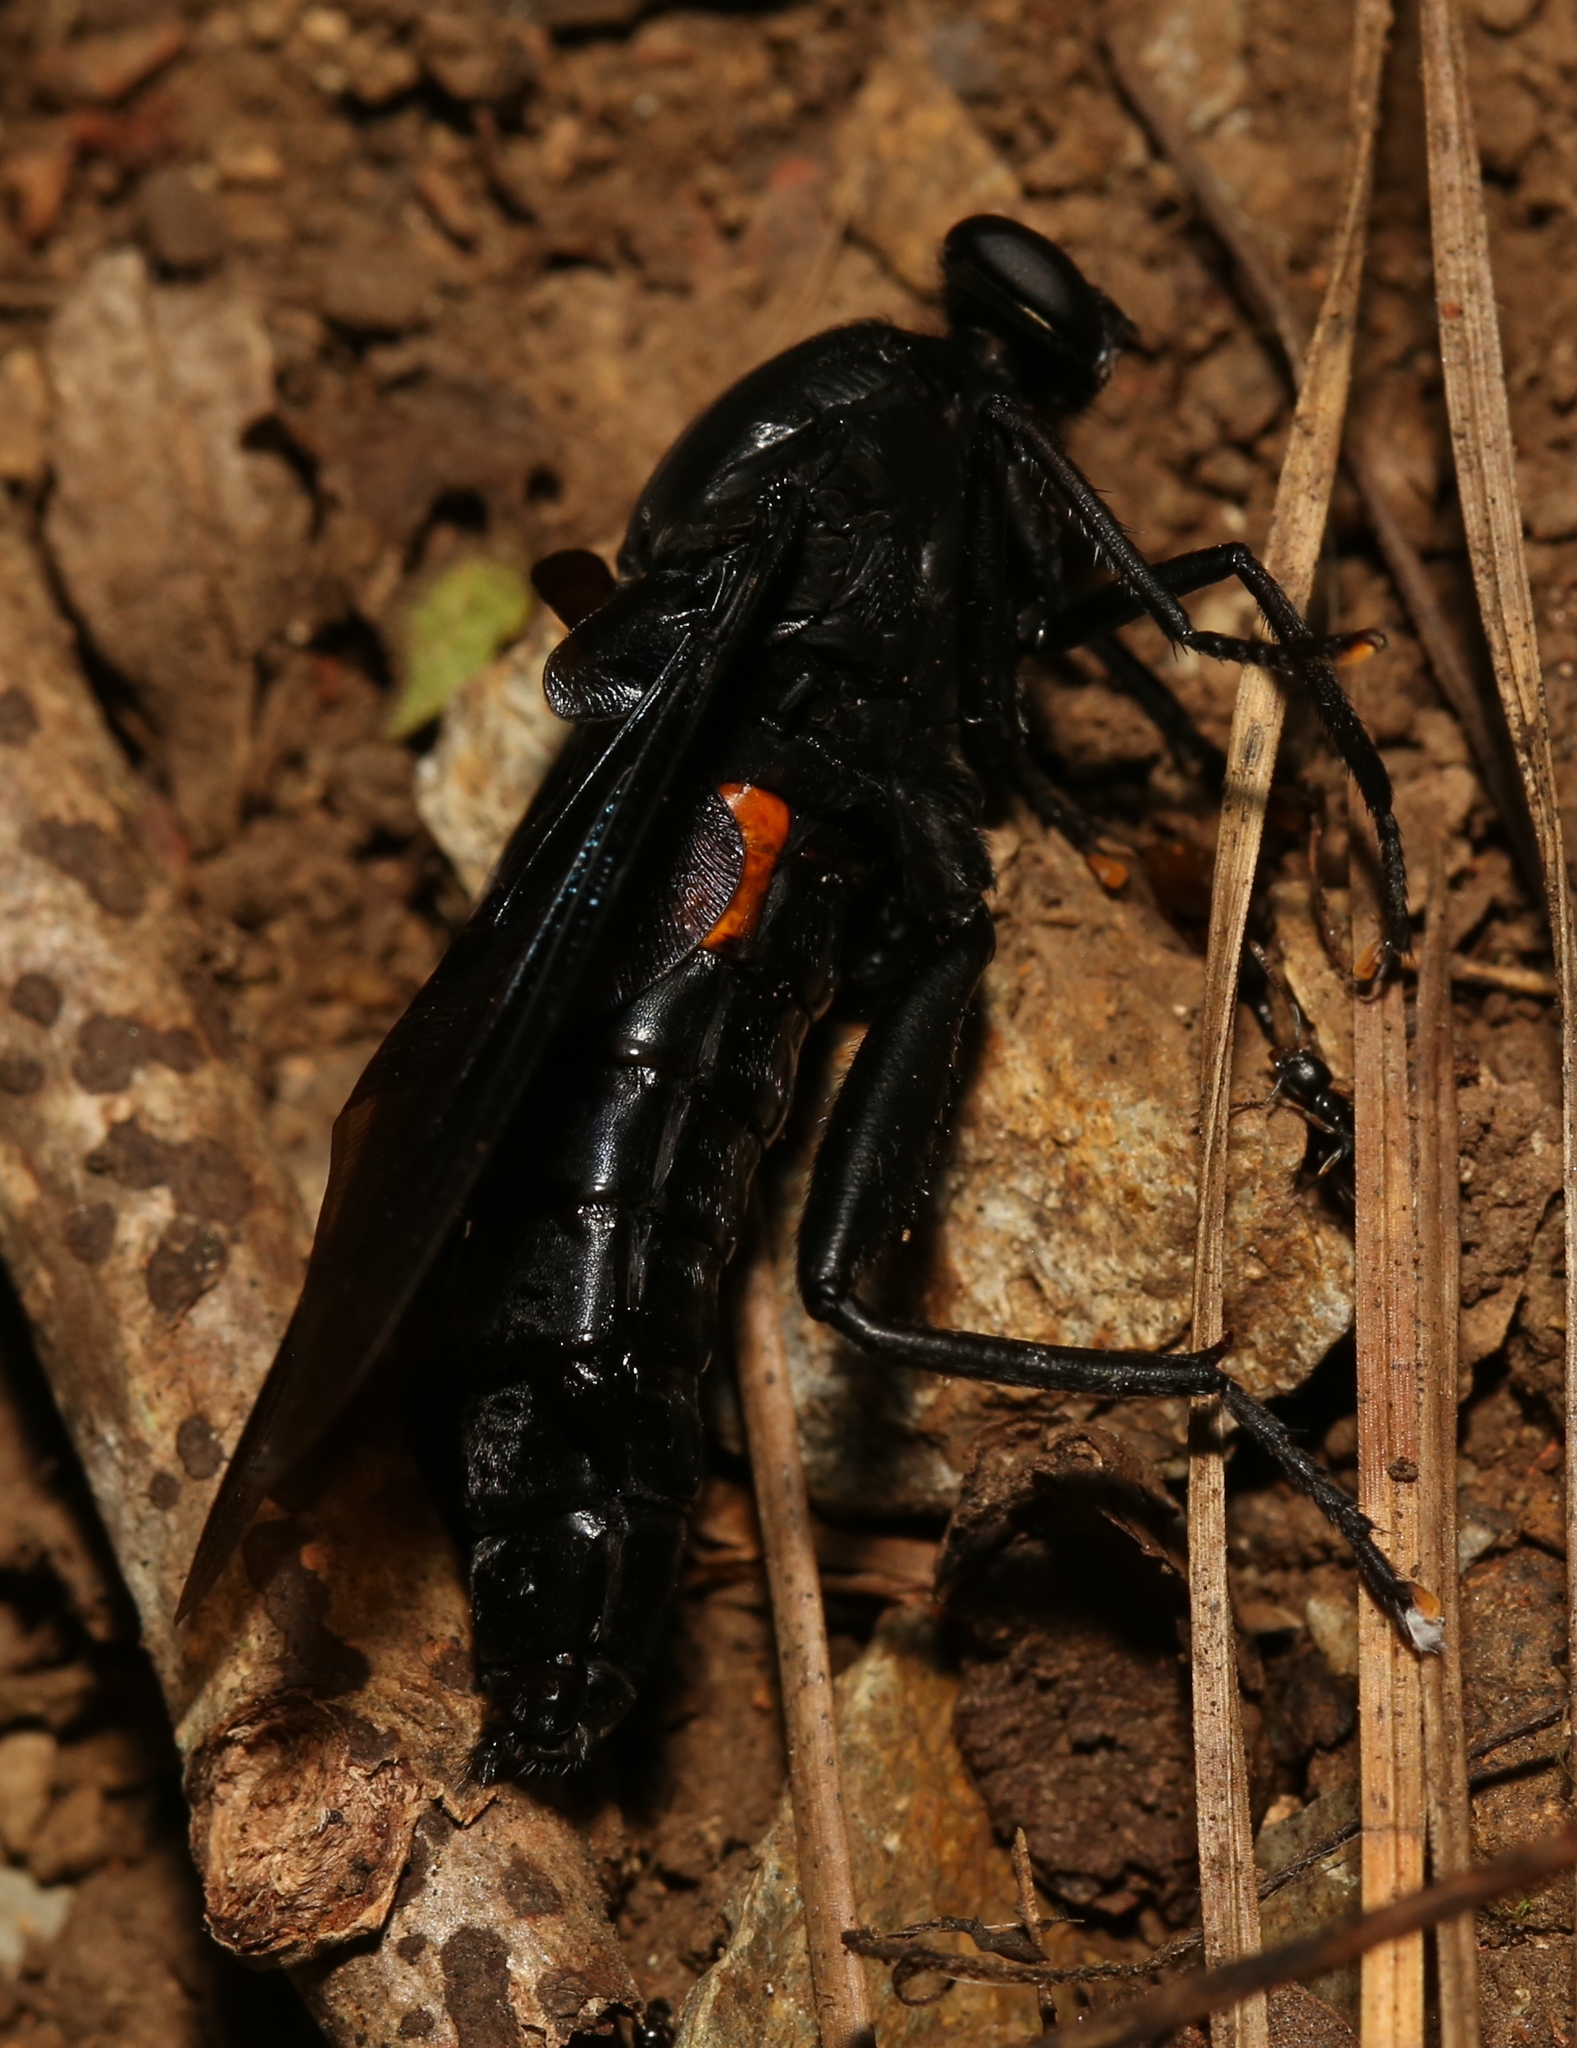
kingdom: Animalia
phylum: Arthropoda
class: Insecta
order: Diptera
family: Mydidae
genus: Mydas
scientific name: Mydas clavatus
